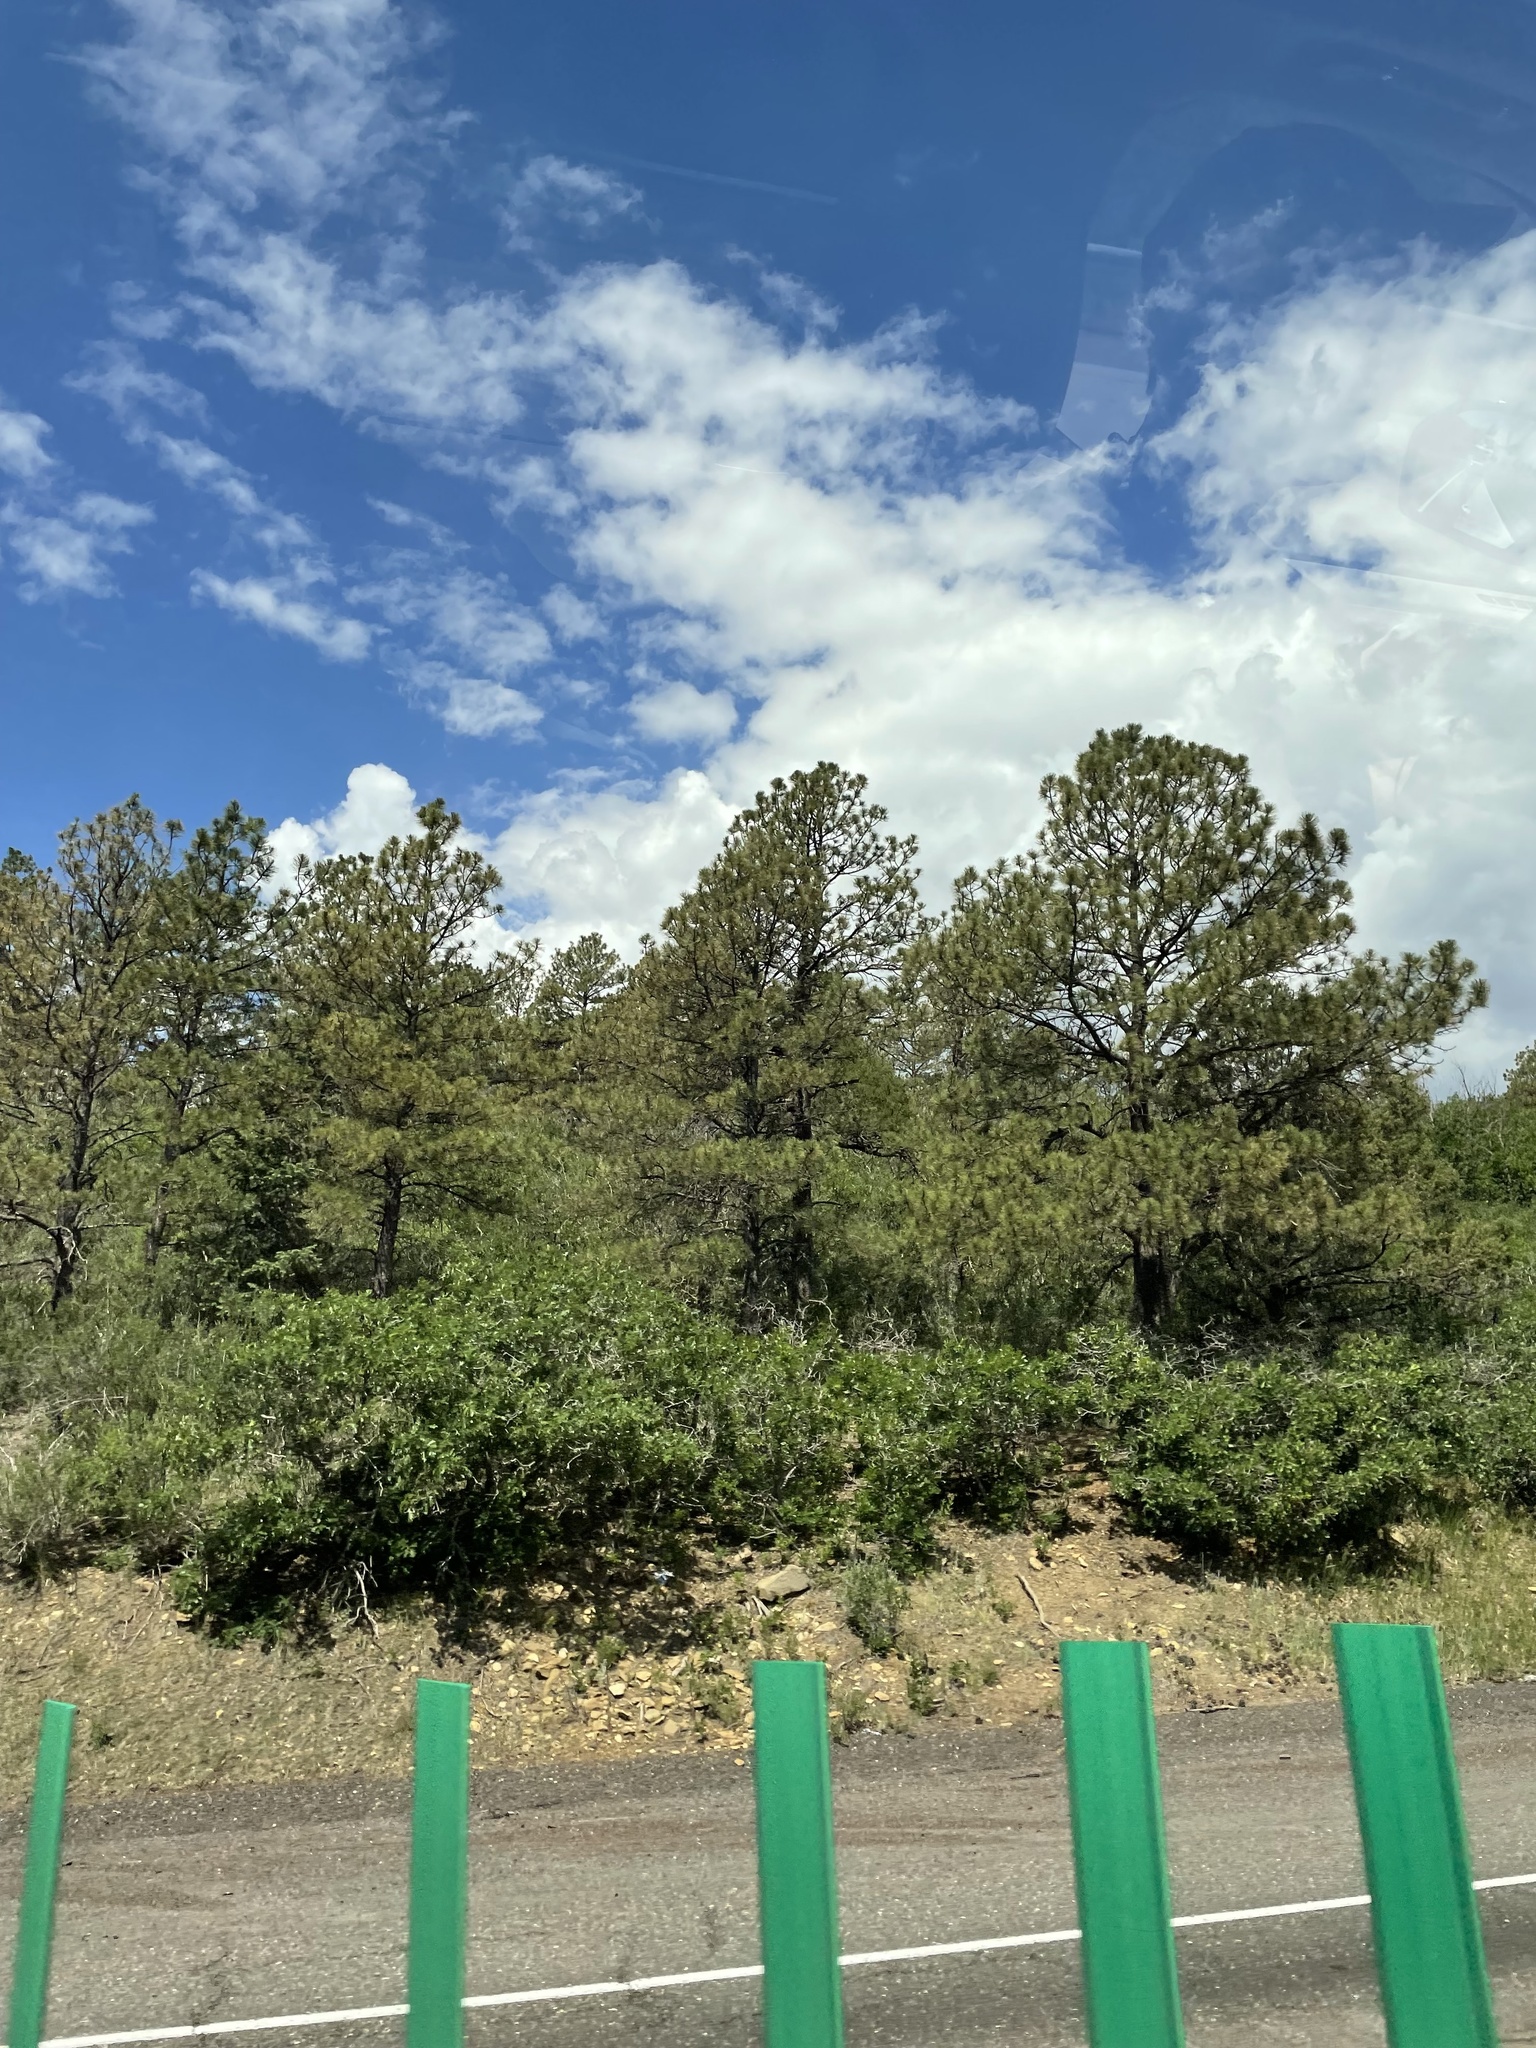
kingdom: Plantae
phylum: Tracheophyta
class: Pinopsida
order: Pinales
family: Pinaceae
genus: Pinus
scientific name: Pinus ponderosa
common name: Western yellow-pine
